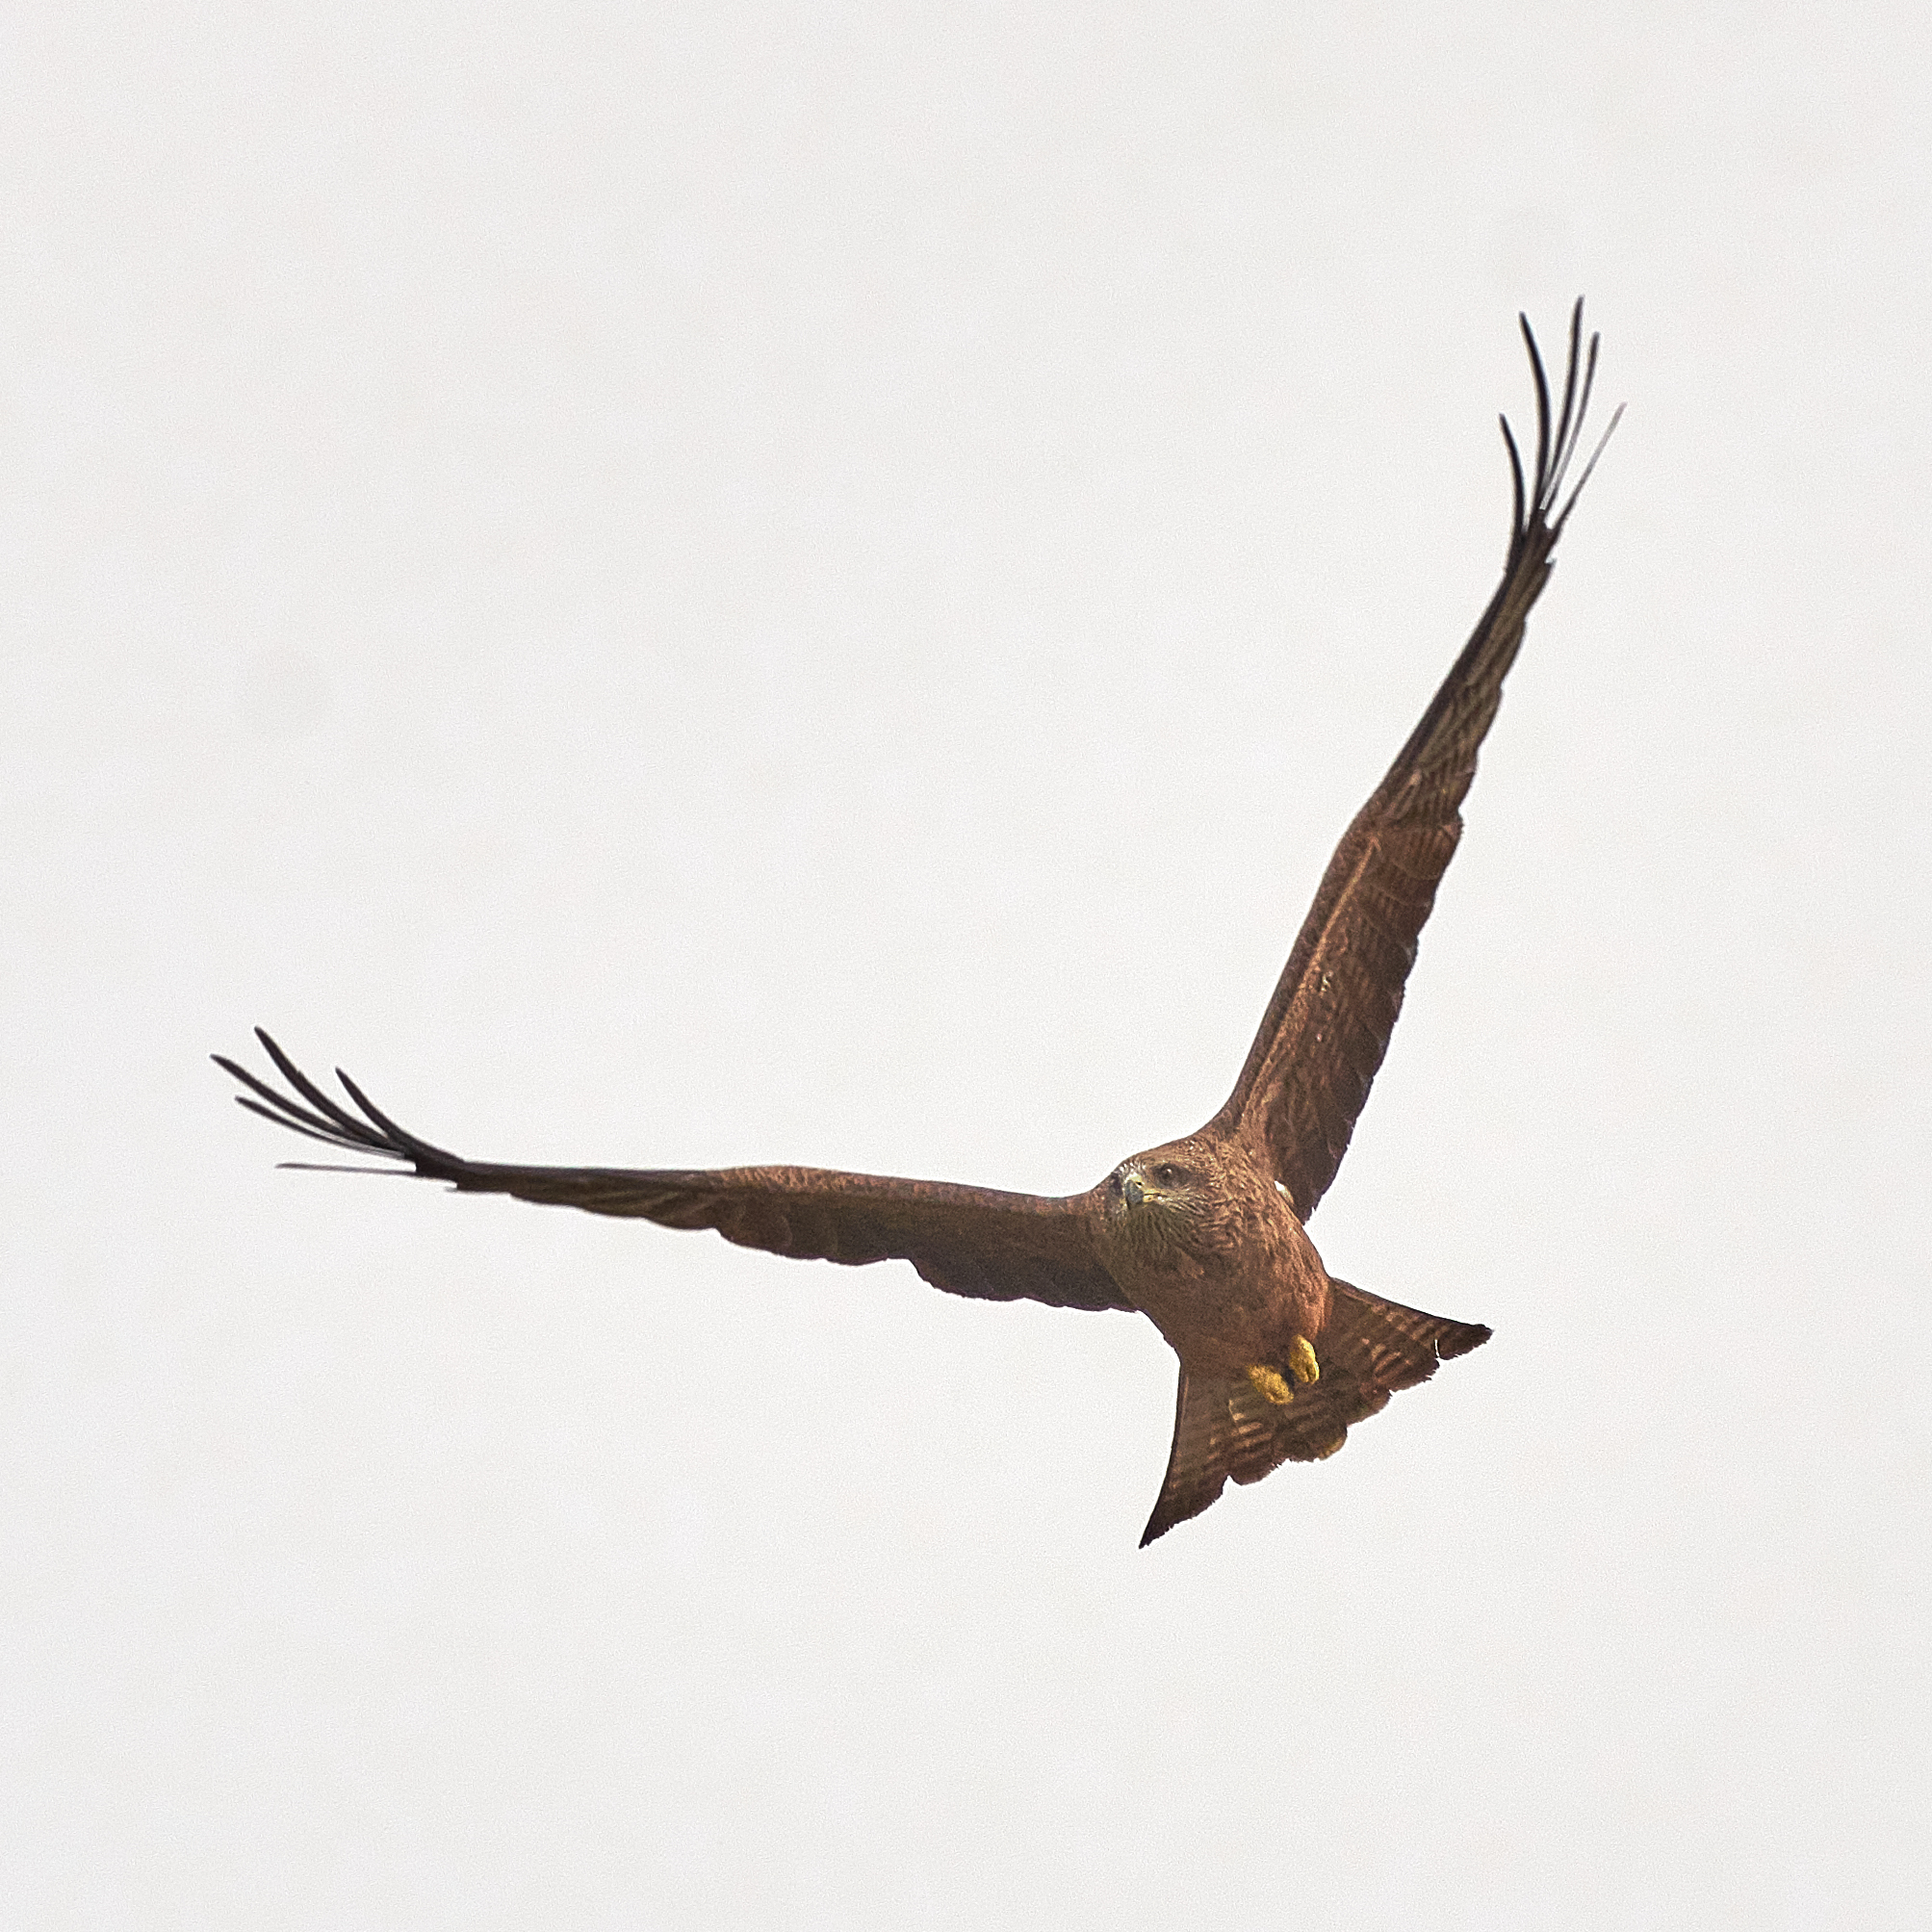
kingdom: Animalia
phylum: Chordata
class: Aves
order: Accipitriformes
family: Accipitridae
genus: Milvus
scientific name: Milvus migrans
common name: Black kite
